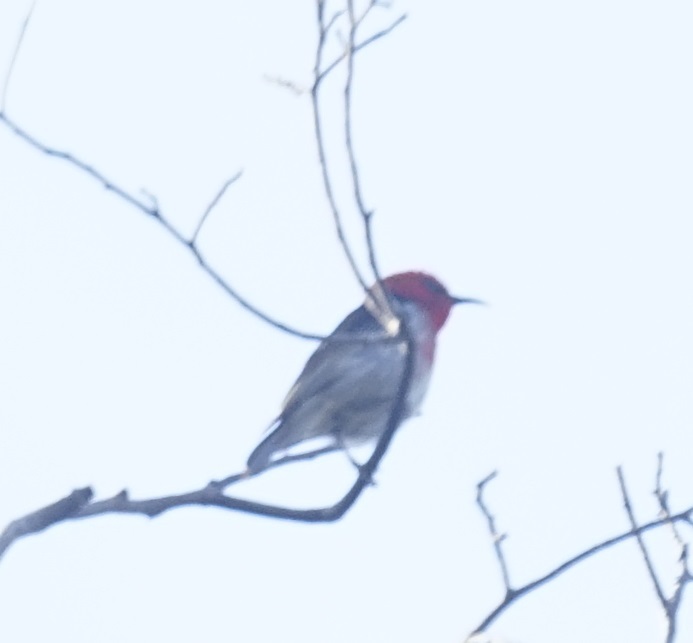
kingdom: Animalia
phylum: Chordata
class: Aves
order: Passeriformes
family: Meliphagidae
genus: Myzomela
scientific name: Myzomela sanguinolenta
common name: Scarlet myzomela
